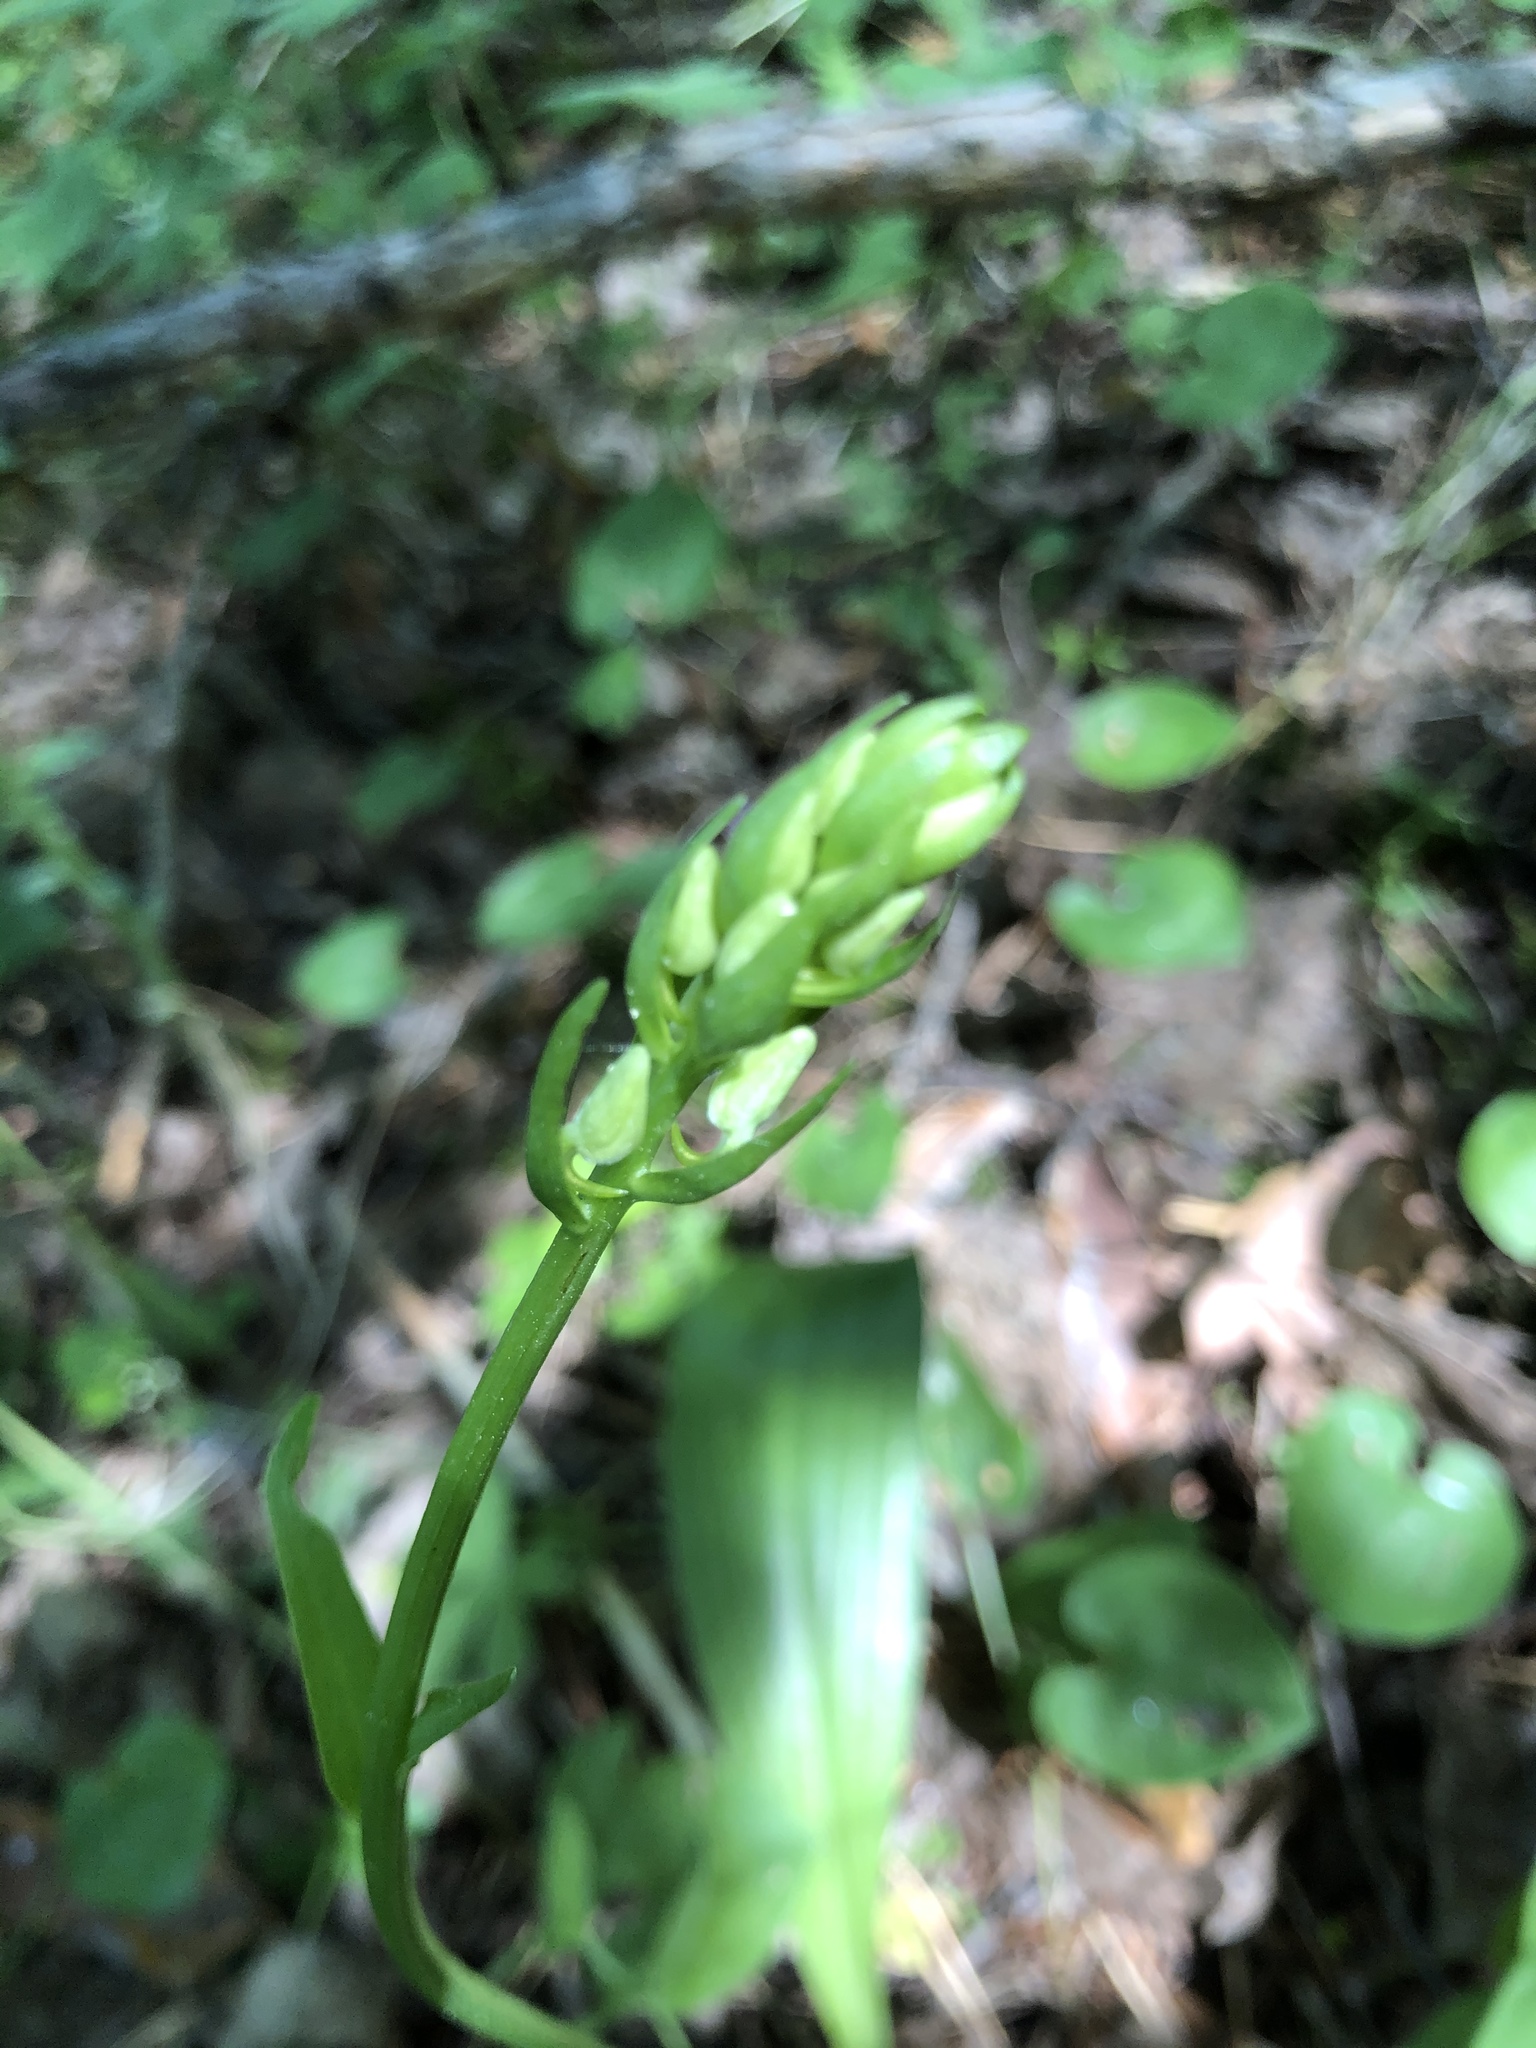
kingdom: Plantae
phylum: Tracheophyta
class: Liliopsida
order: Asparagales
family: Orchidaceae
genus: Platanthera
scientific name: Platanthera bifolia
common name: Lesser butterfly-orchid
